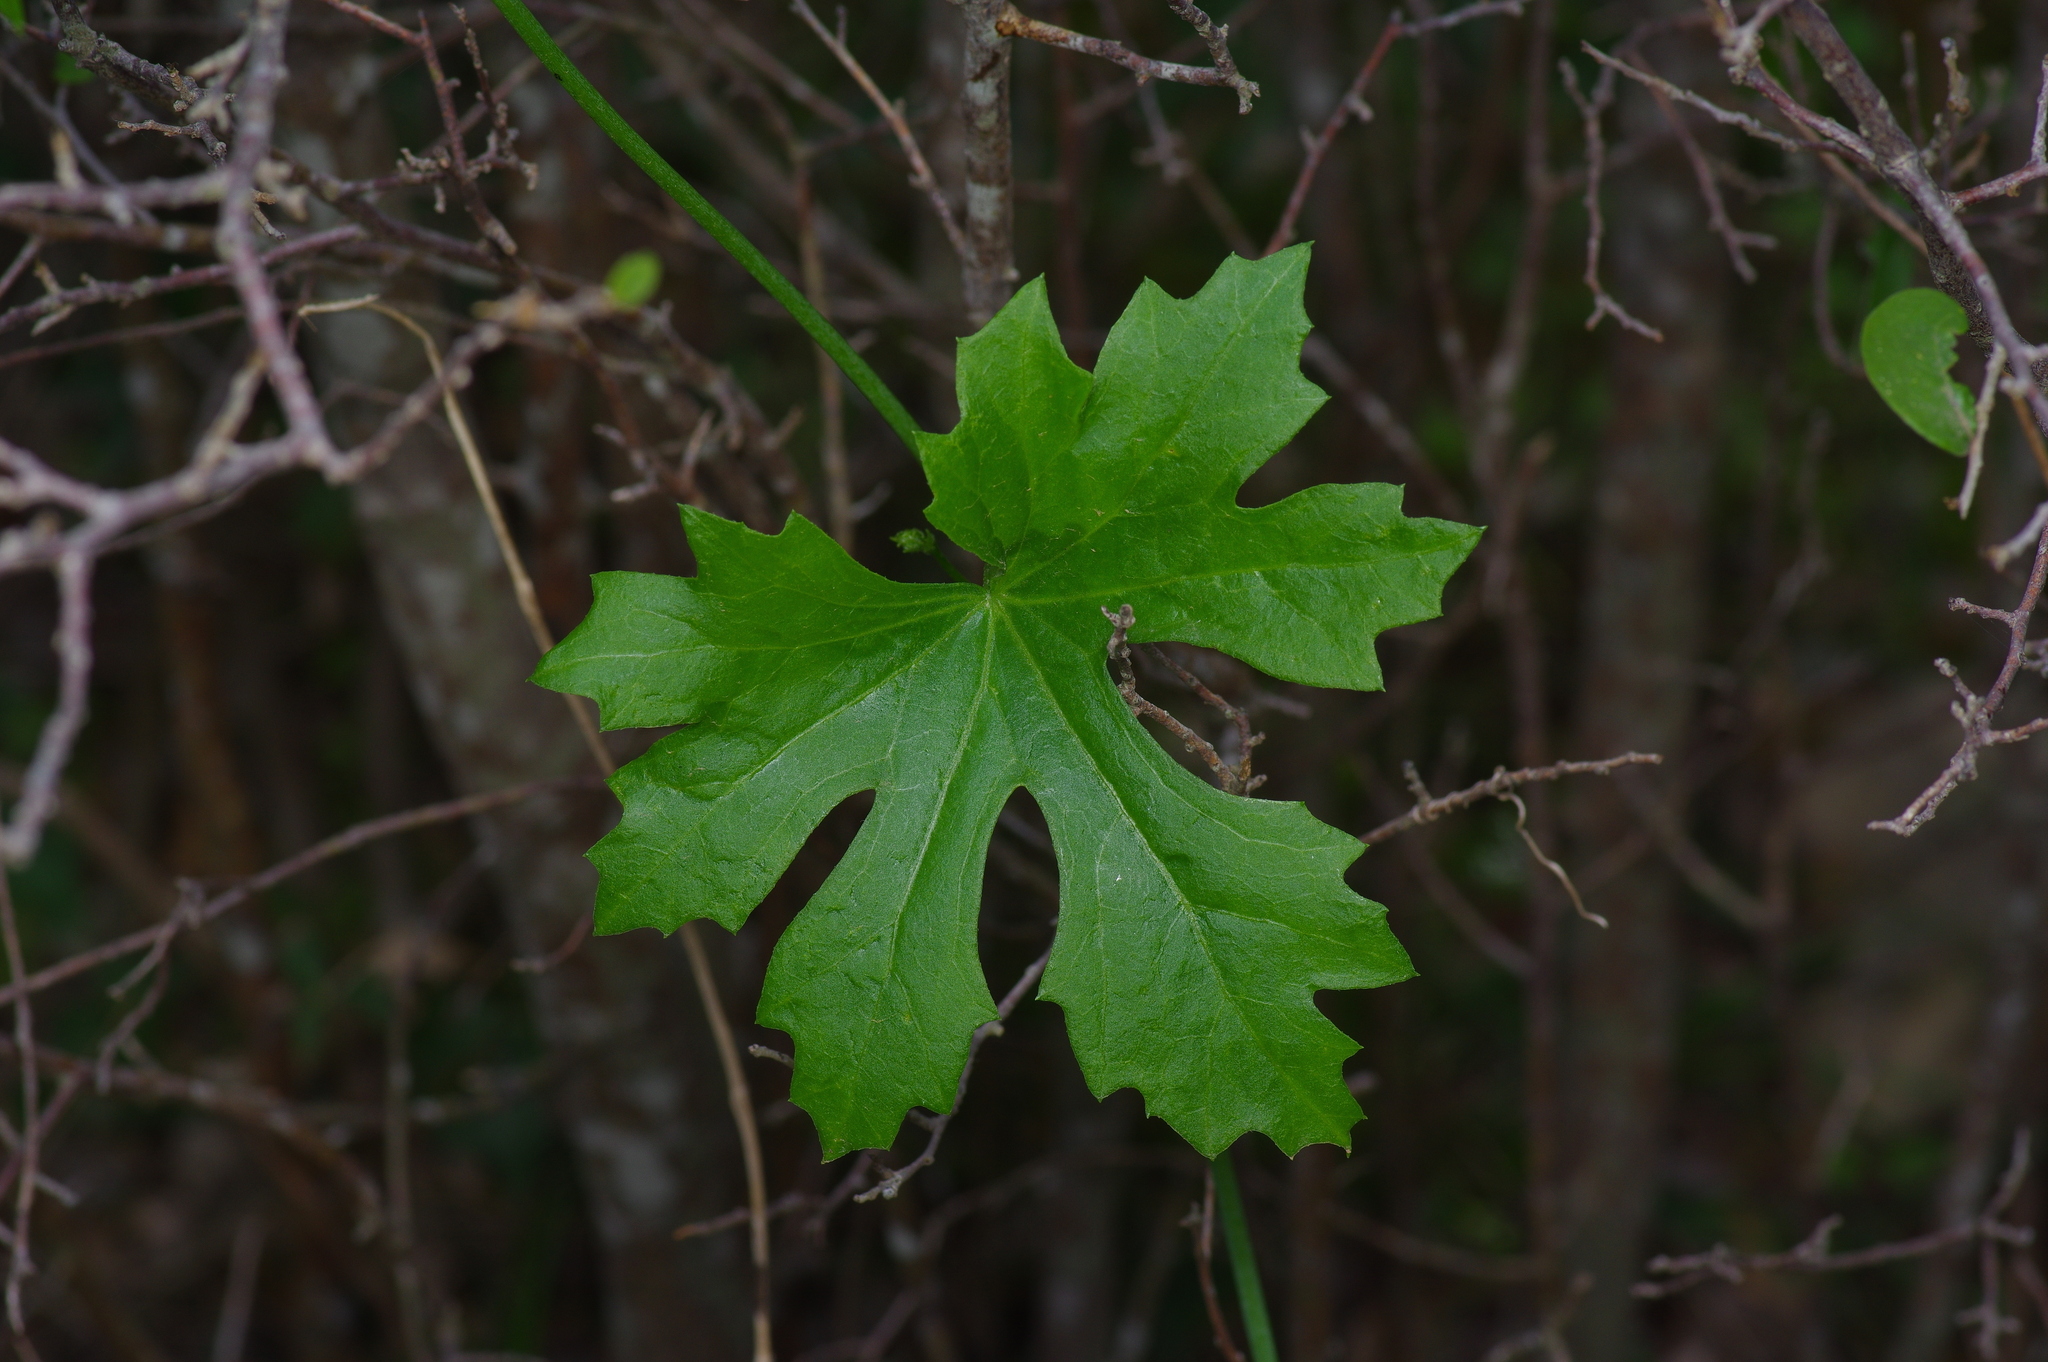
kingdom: Plantae
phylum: Tracheophyta
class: Magnoliopsida
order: Cucurbitales
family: Cucurbitaceae
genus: Ibervillea
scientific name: Ibervillea lindheimeri
